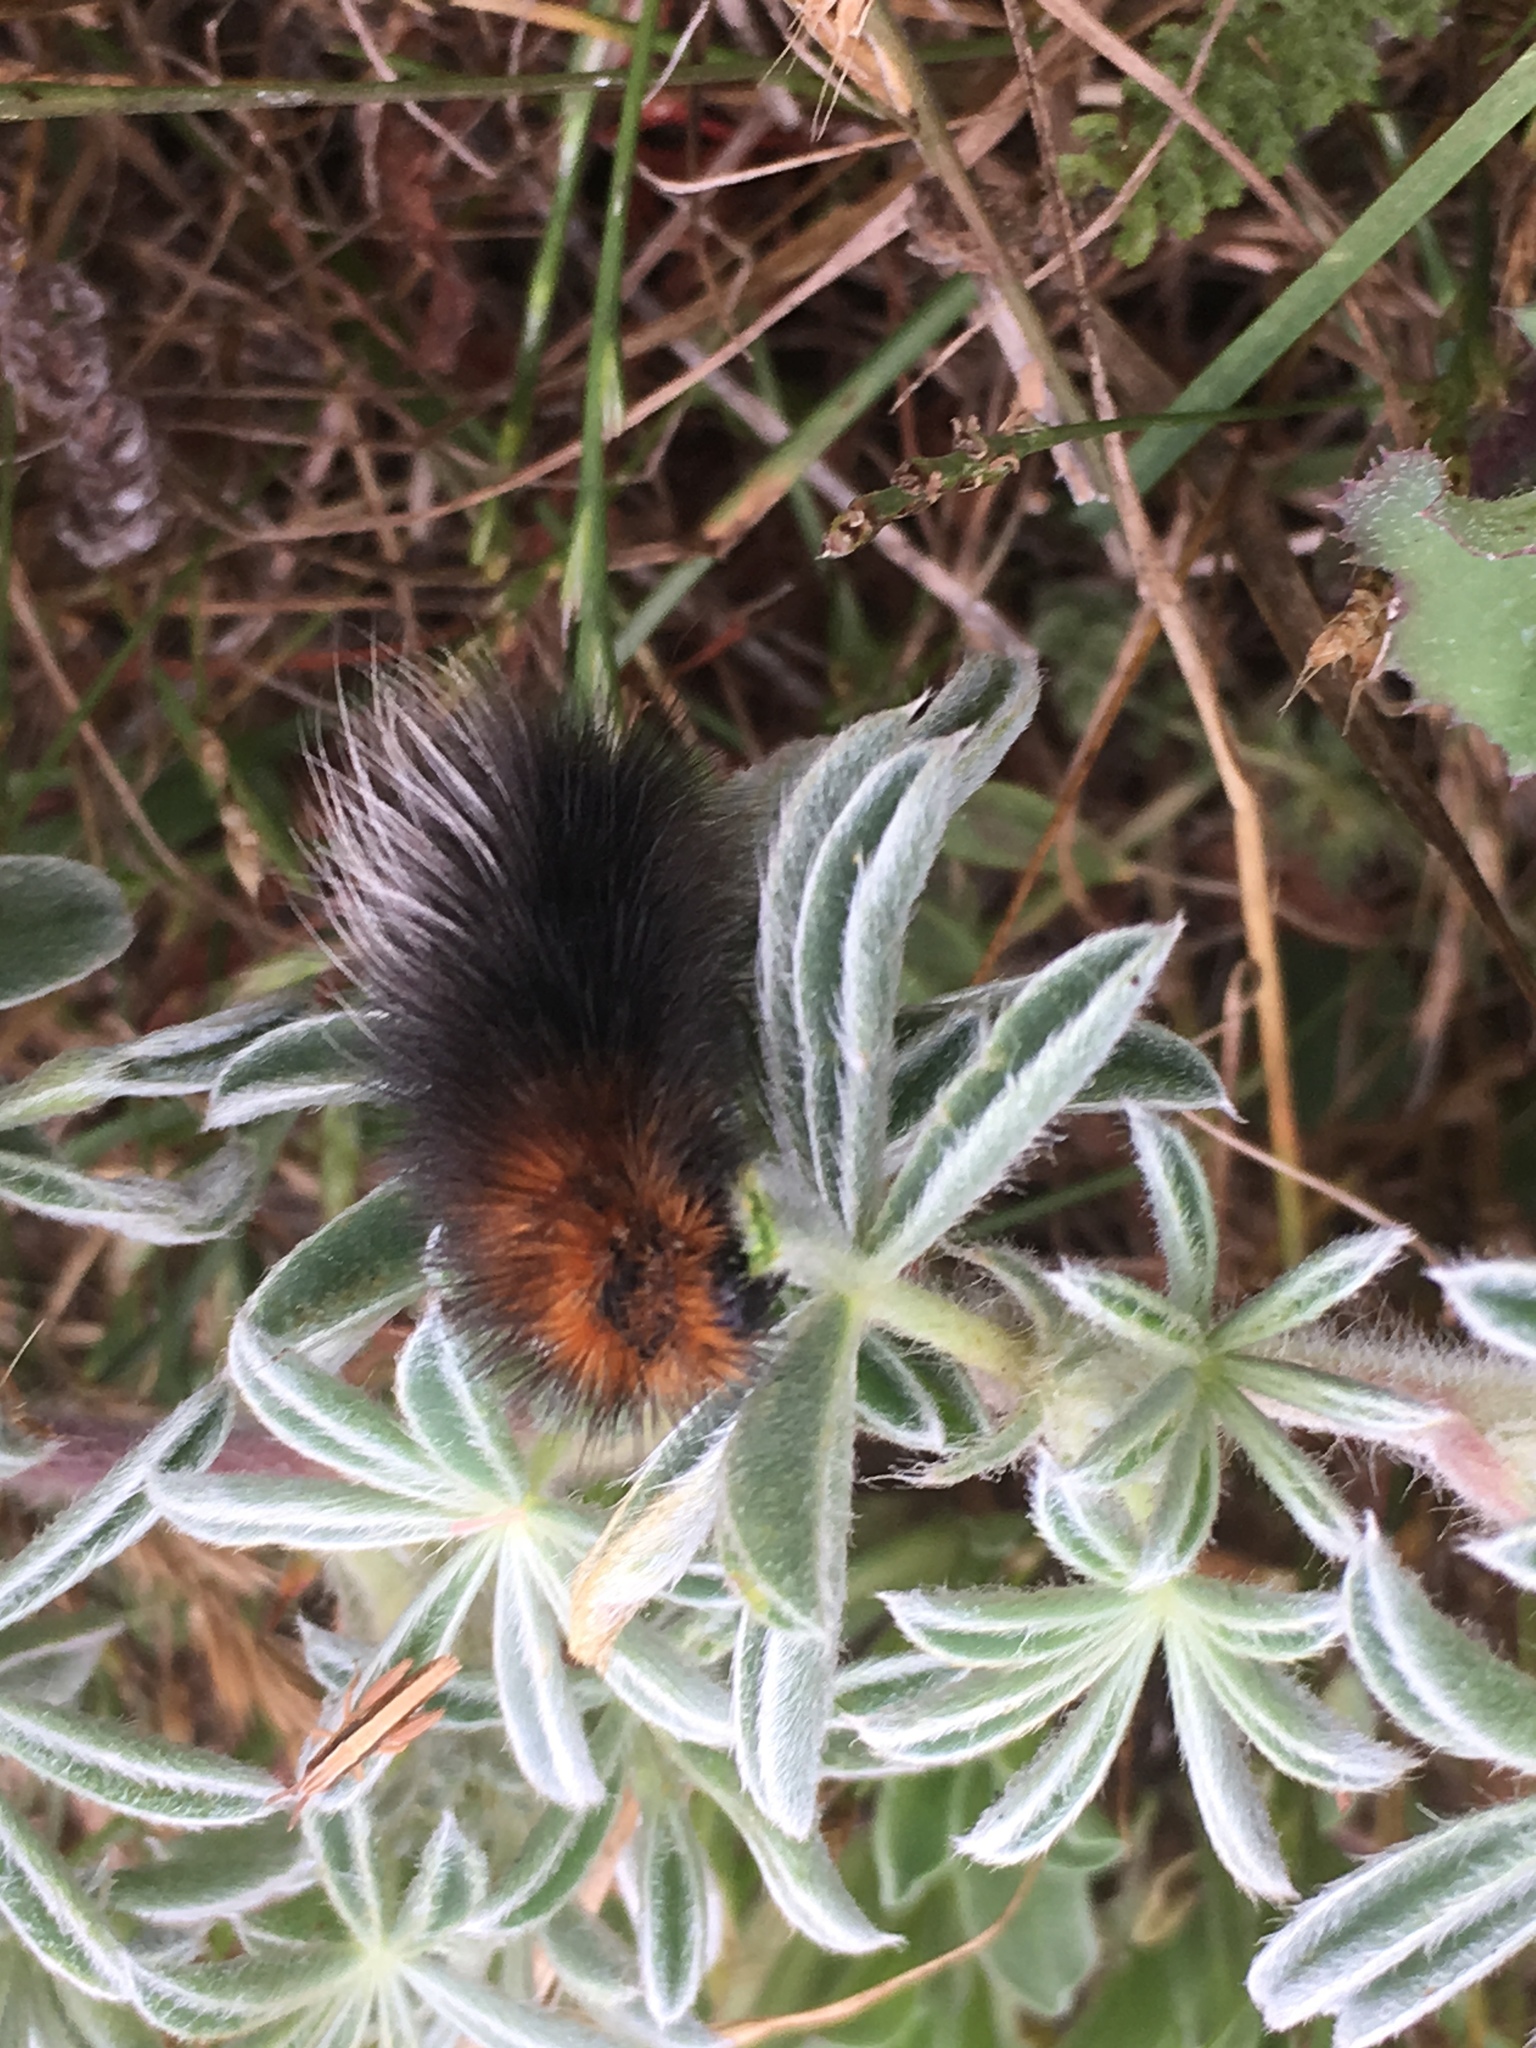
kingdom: Animalia
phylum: Arthropoda
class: Insecta
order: Lepidoptera
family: Erebidae
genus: Arctia
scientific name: Arctia tigrina
